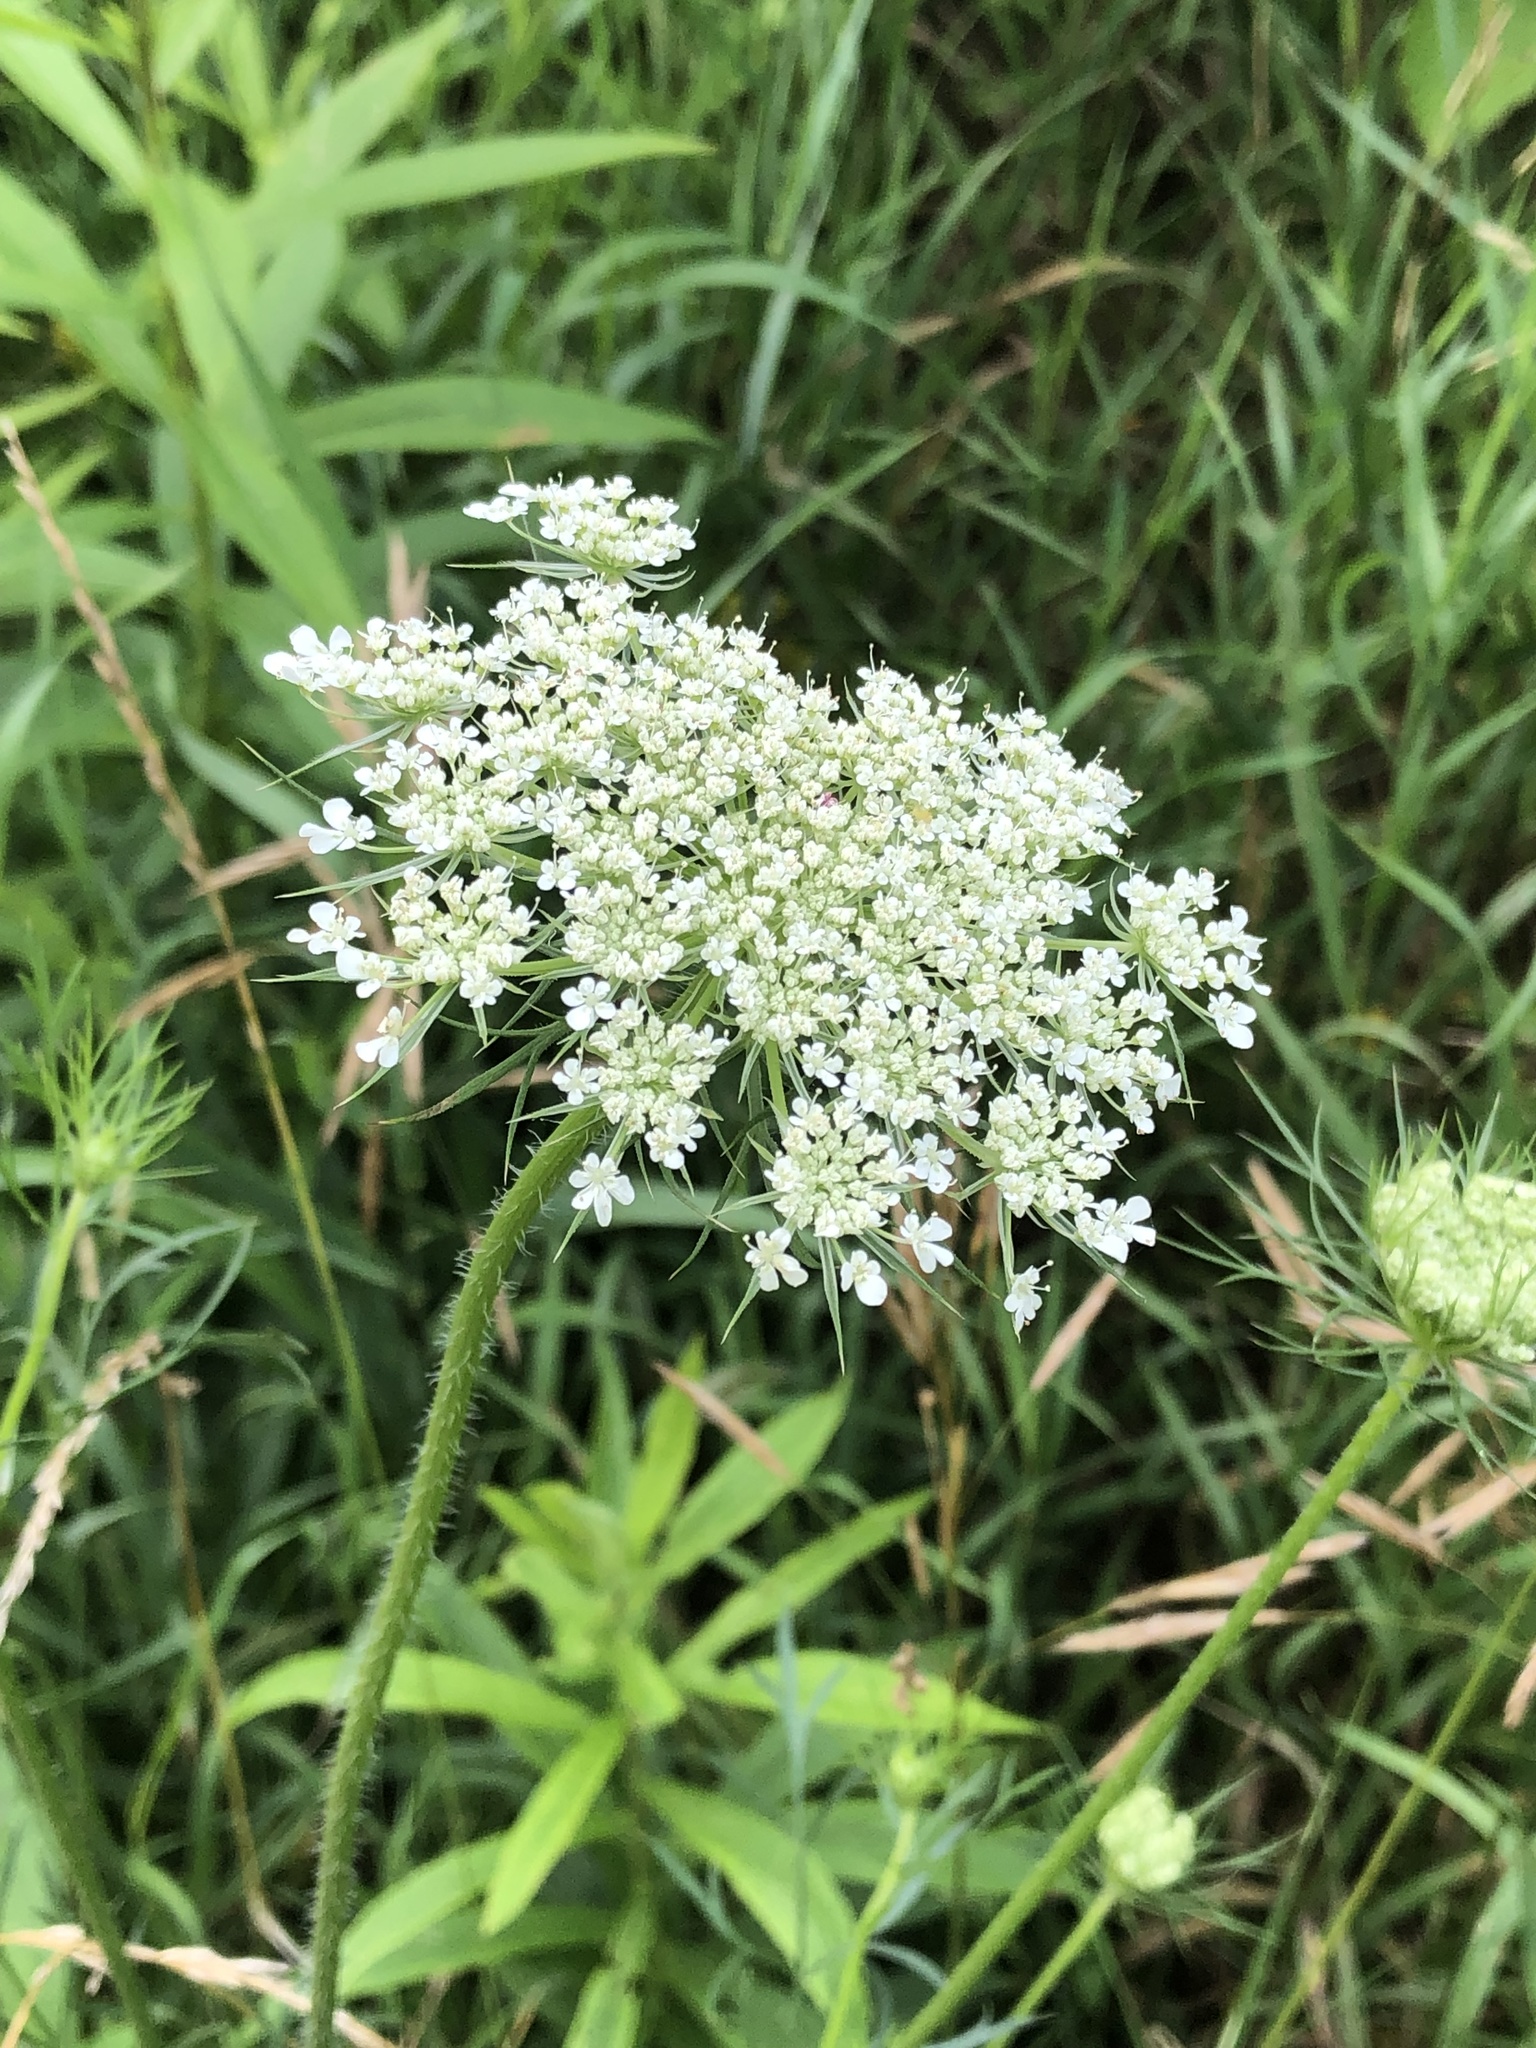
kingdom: Plantae
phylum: Tracheophyta
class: Magnoliopsida
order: Apiales
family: Apiaceae
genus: Daucus
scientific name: Daucus carota
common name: Wild carrot
